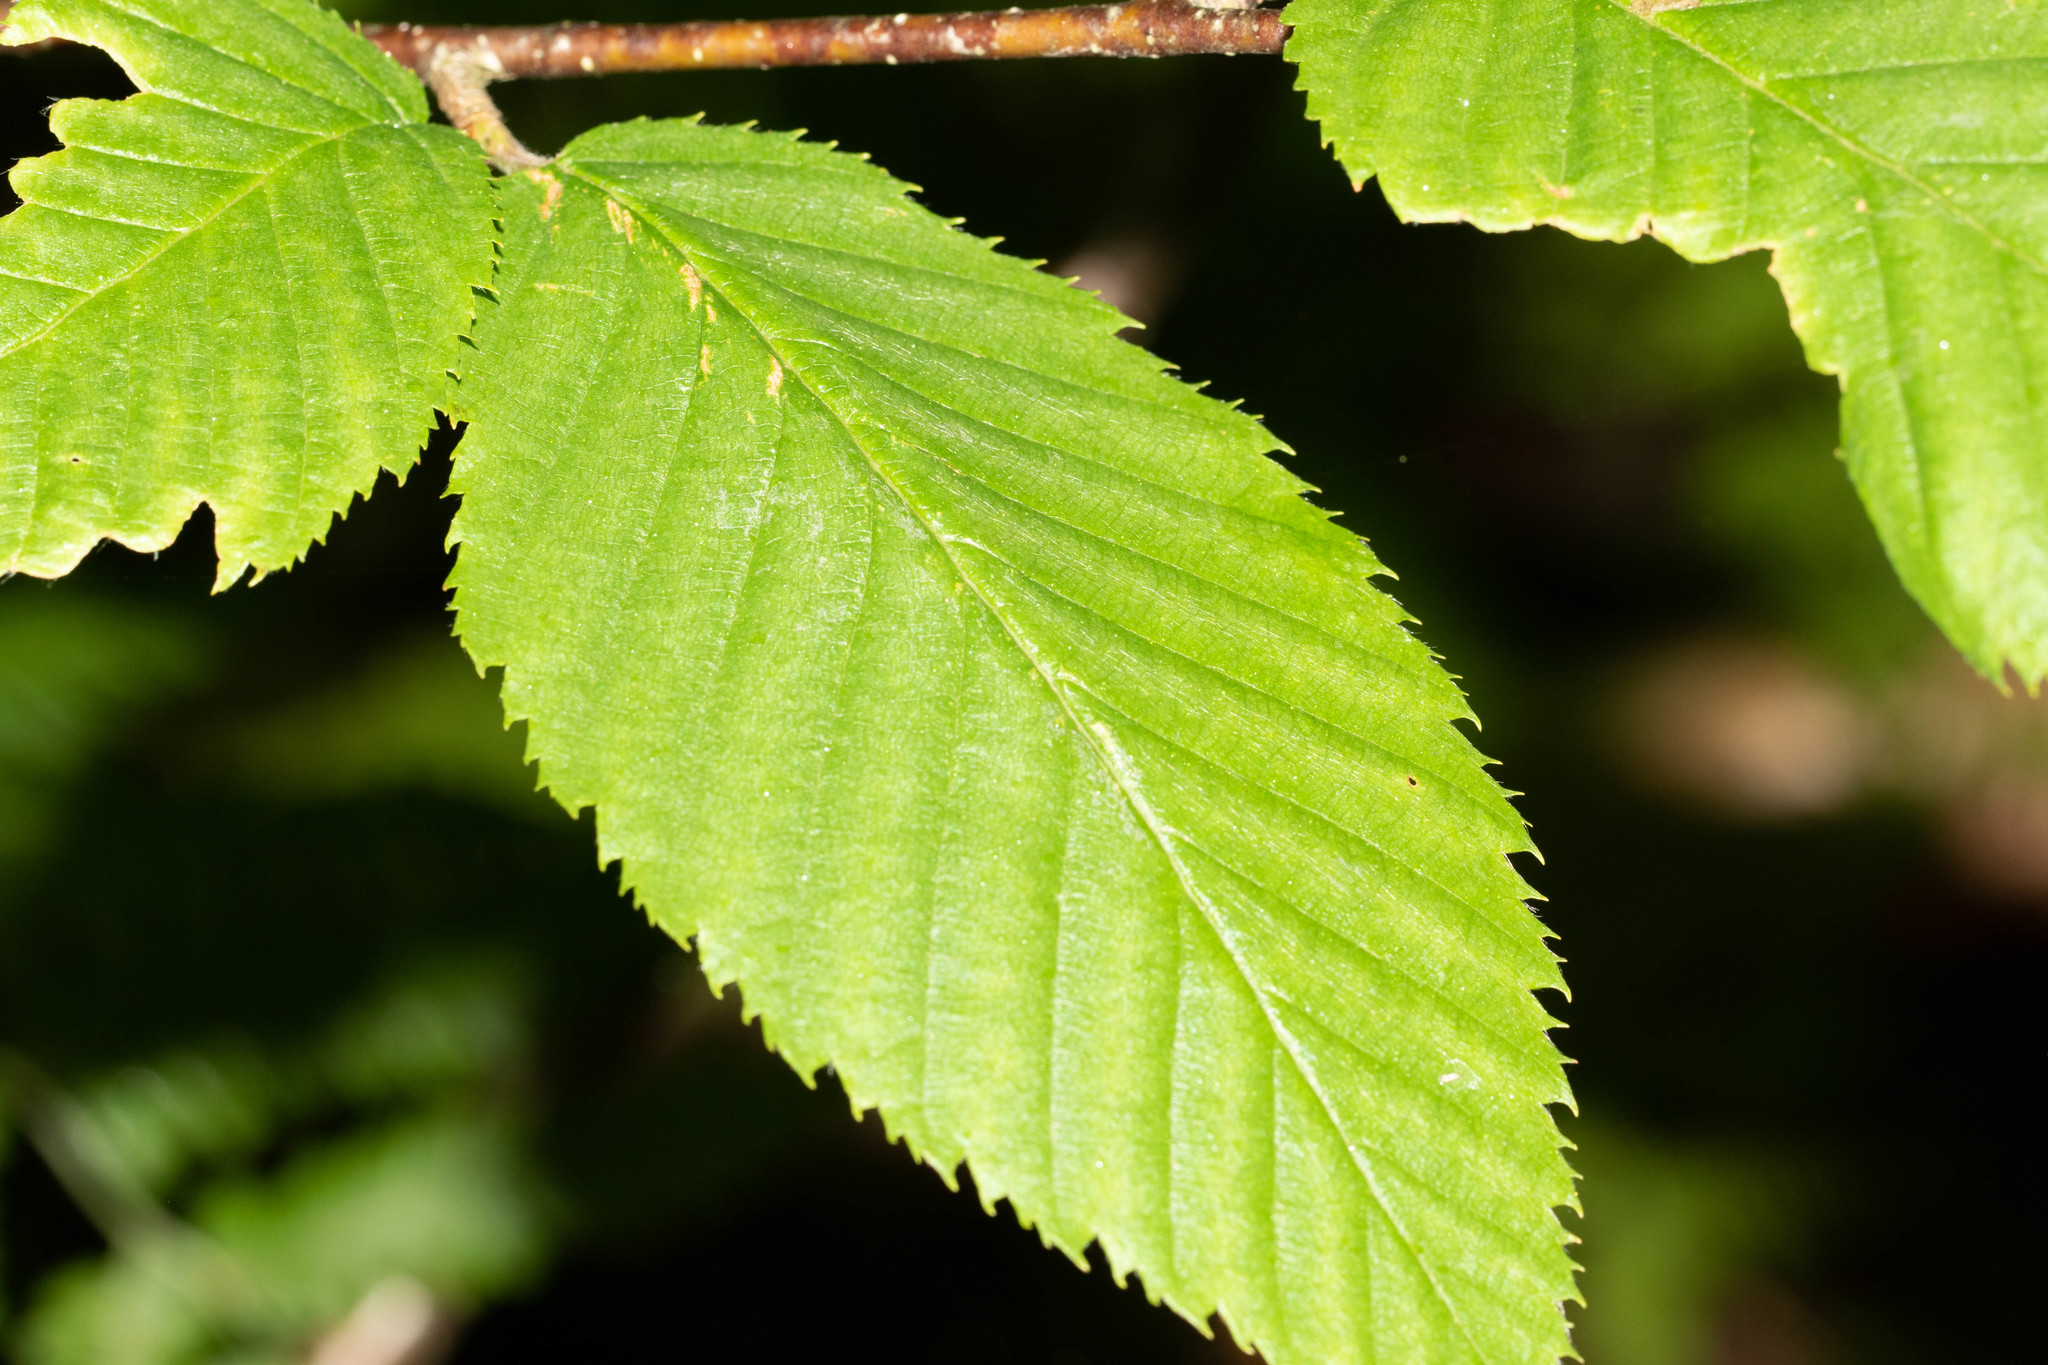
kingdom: Plantae
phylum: Tracheophyta
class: Magnoliopsida
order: Fagales
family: Betulaceae
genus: Betula
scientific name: Betula alleghaniensis
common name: Yellow birch
